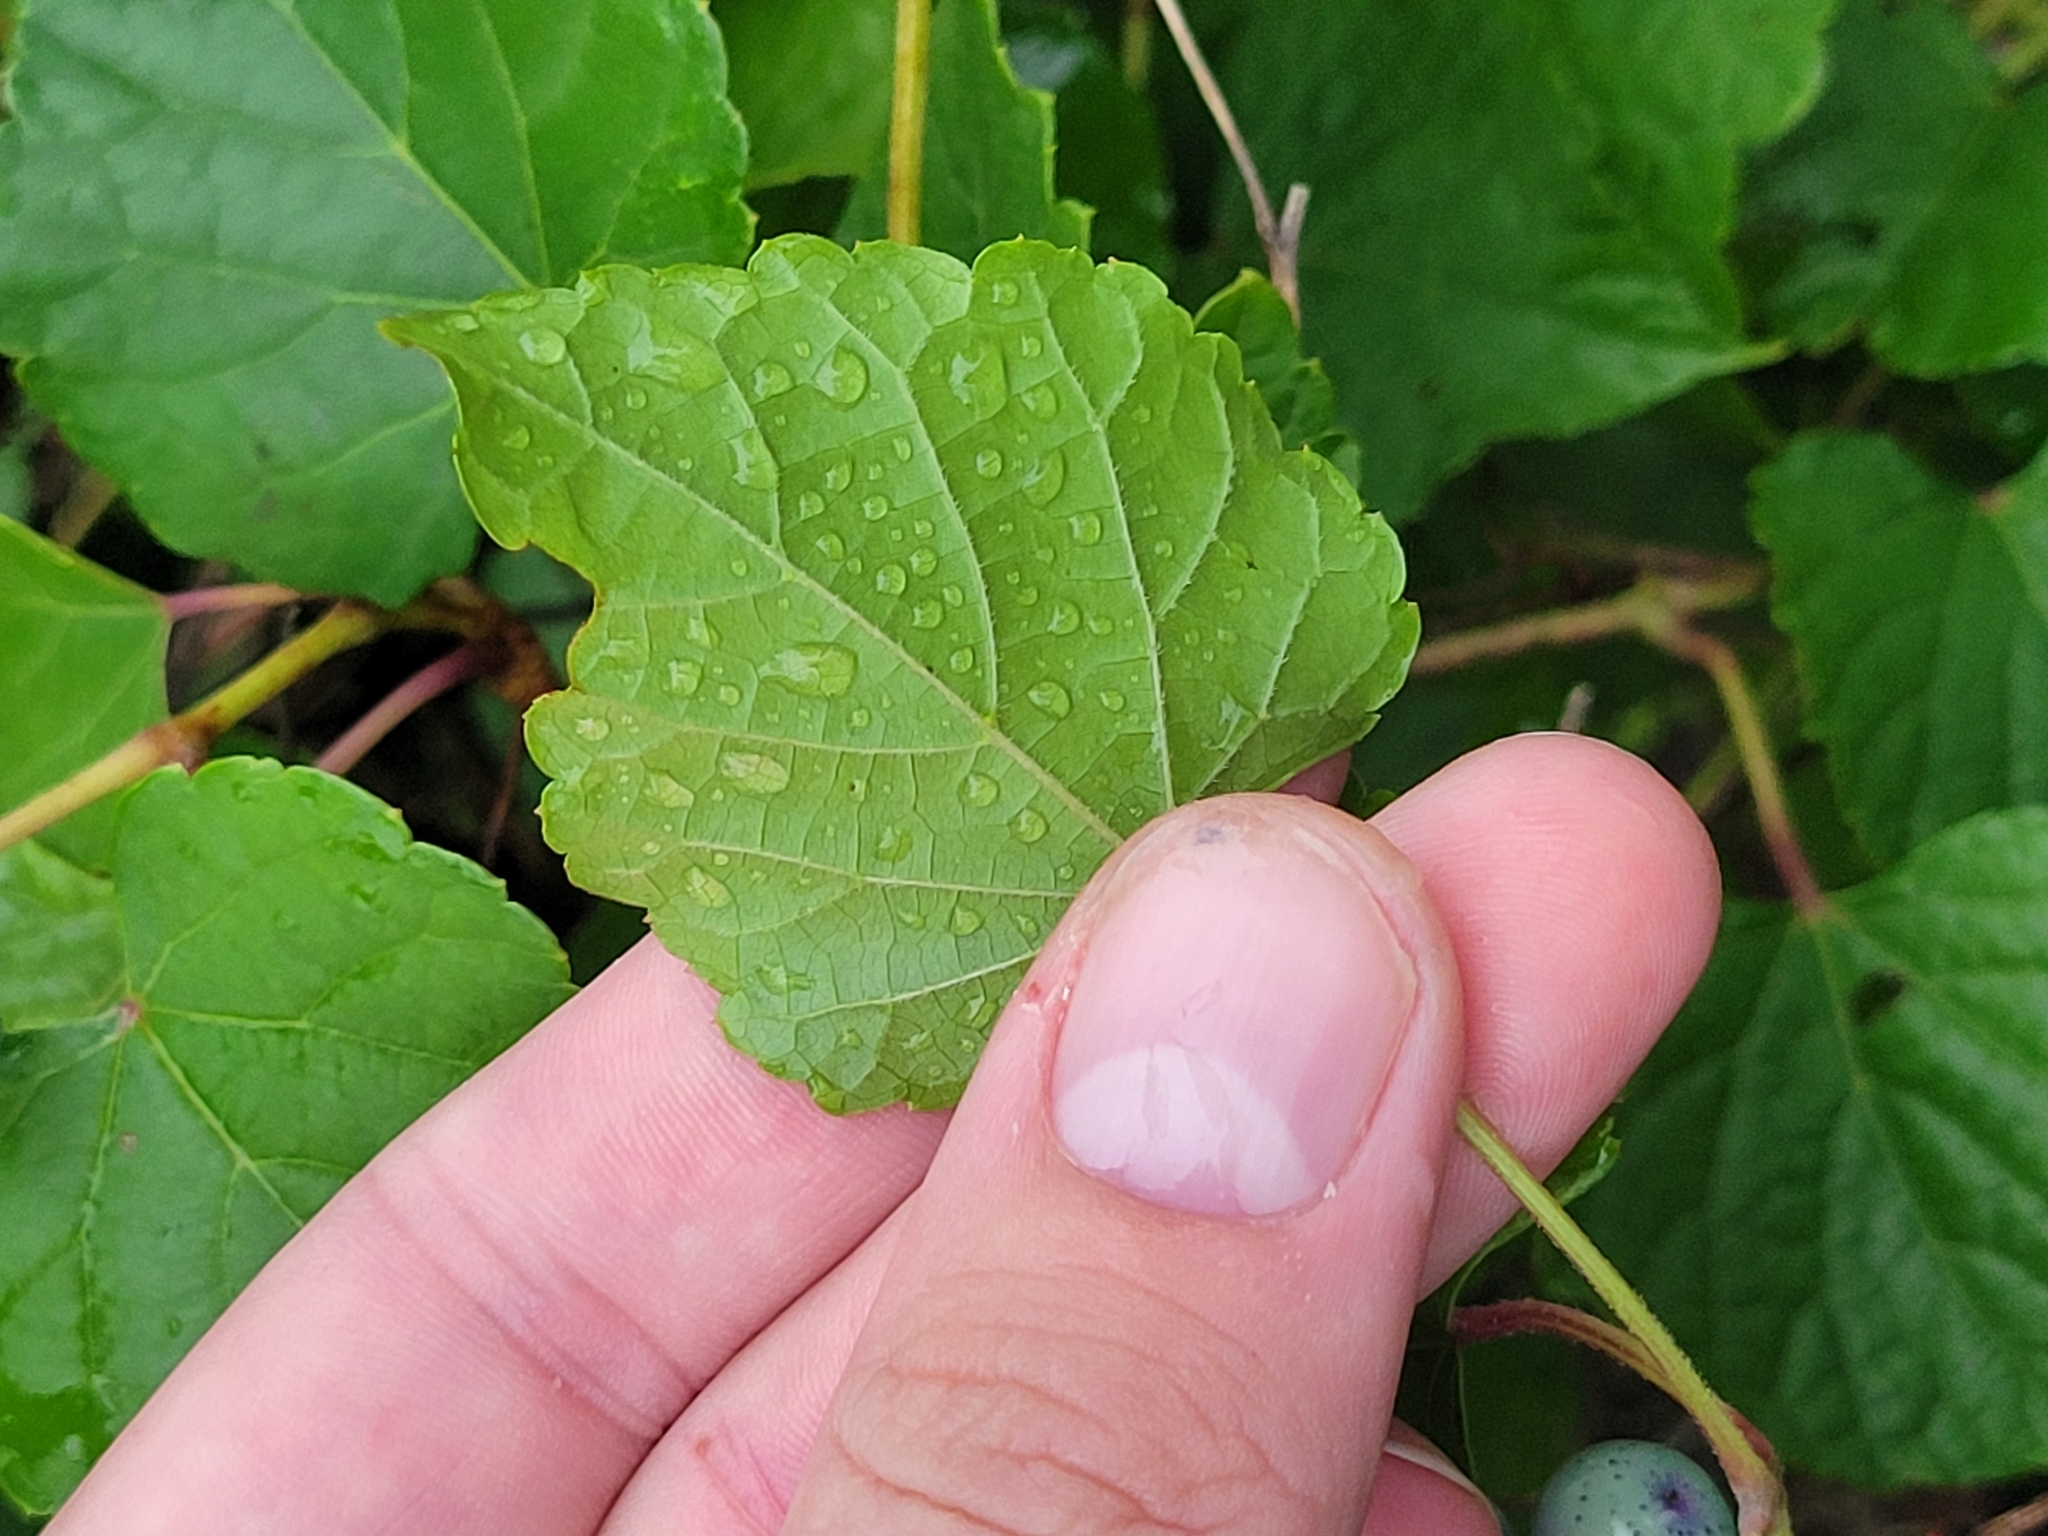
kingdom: Plantae
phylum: Tracheophyta
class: Magnoliopsida
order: Vitales
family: Vitaceae
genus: Ampelopsis
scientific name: Ampelopsis glandulosa
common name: Amur peppervine
